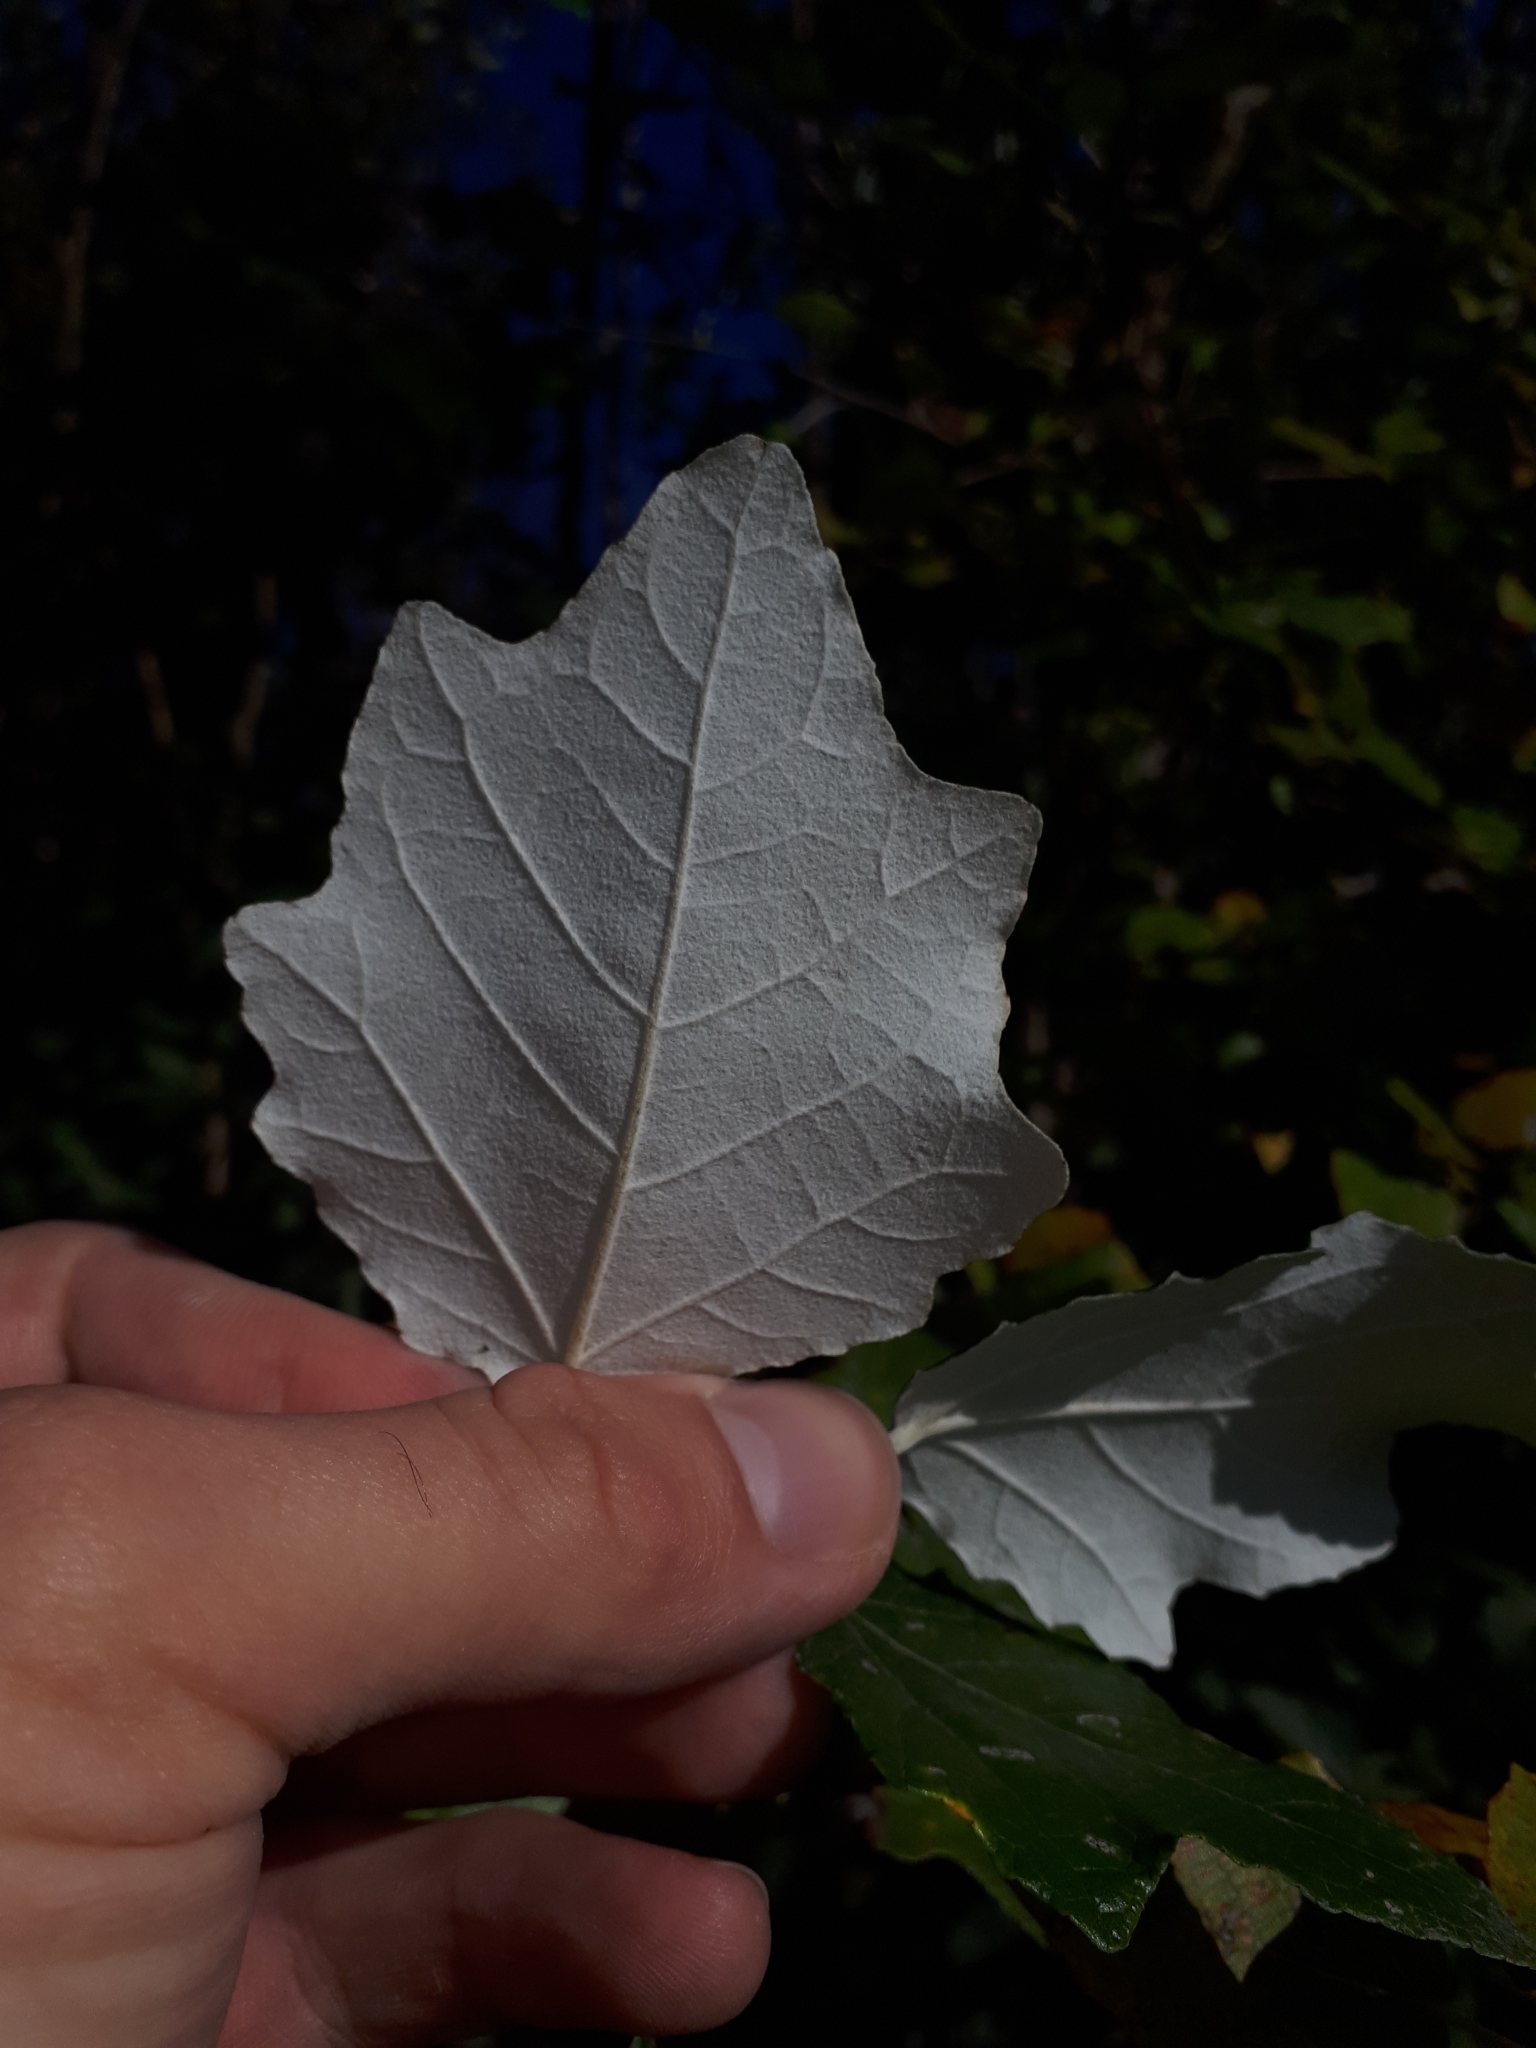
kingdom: Plantae
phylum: Tracheophyta
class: Magnoliopsida
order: Malpighiales
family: Salicaceae
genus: Populus
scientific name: Populus alba
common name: White poplar
